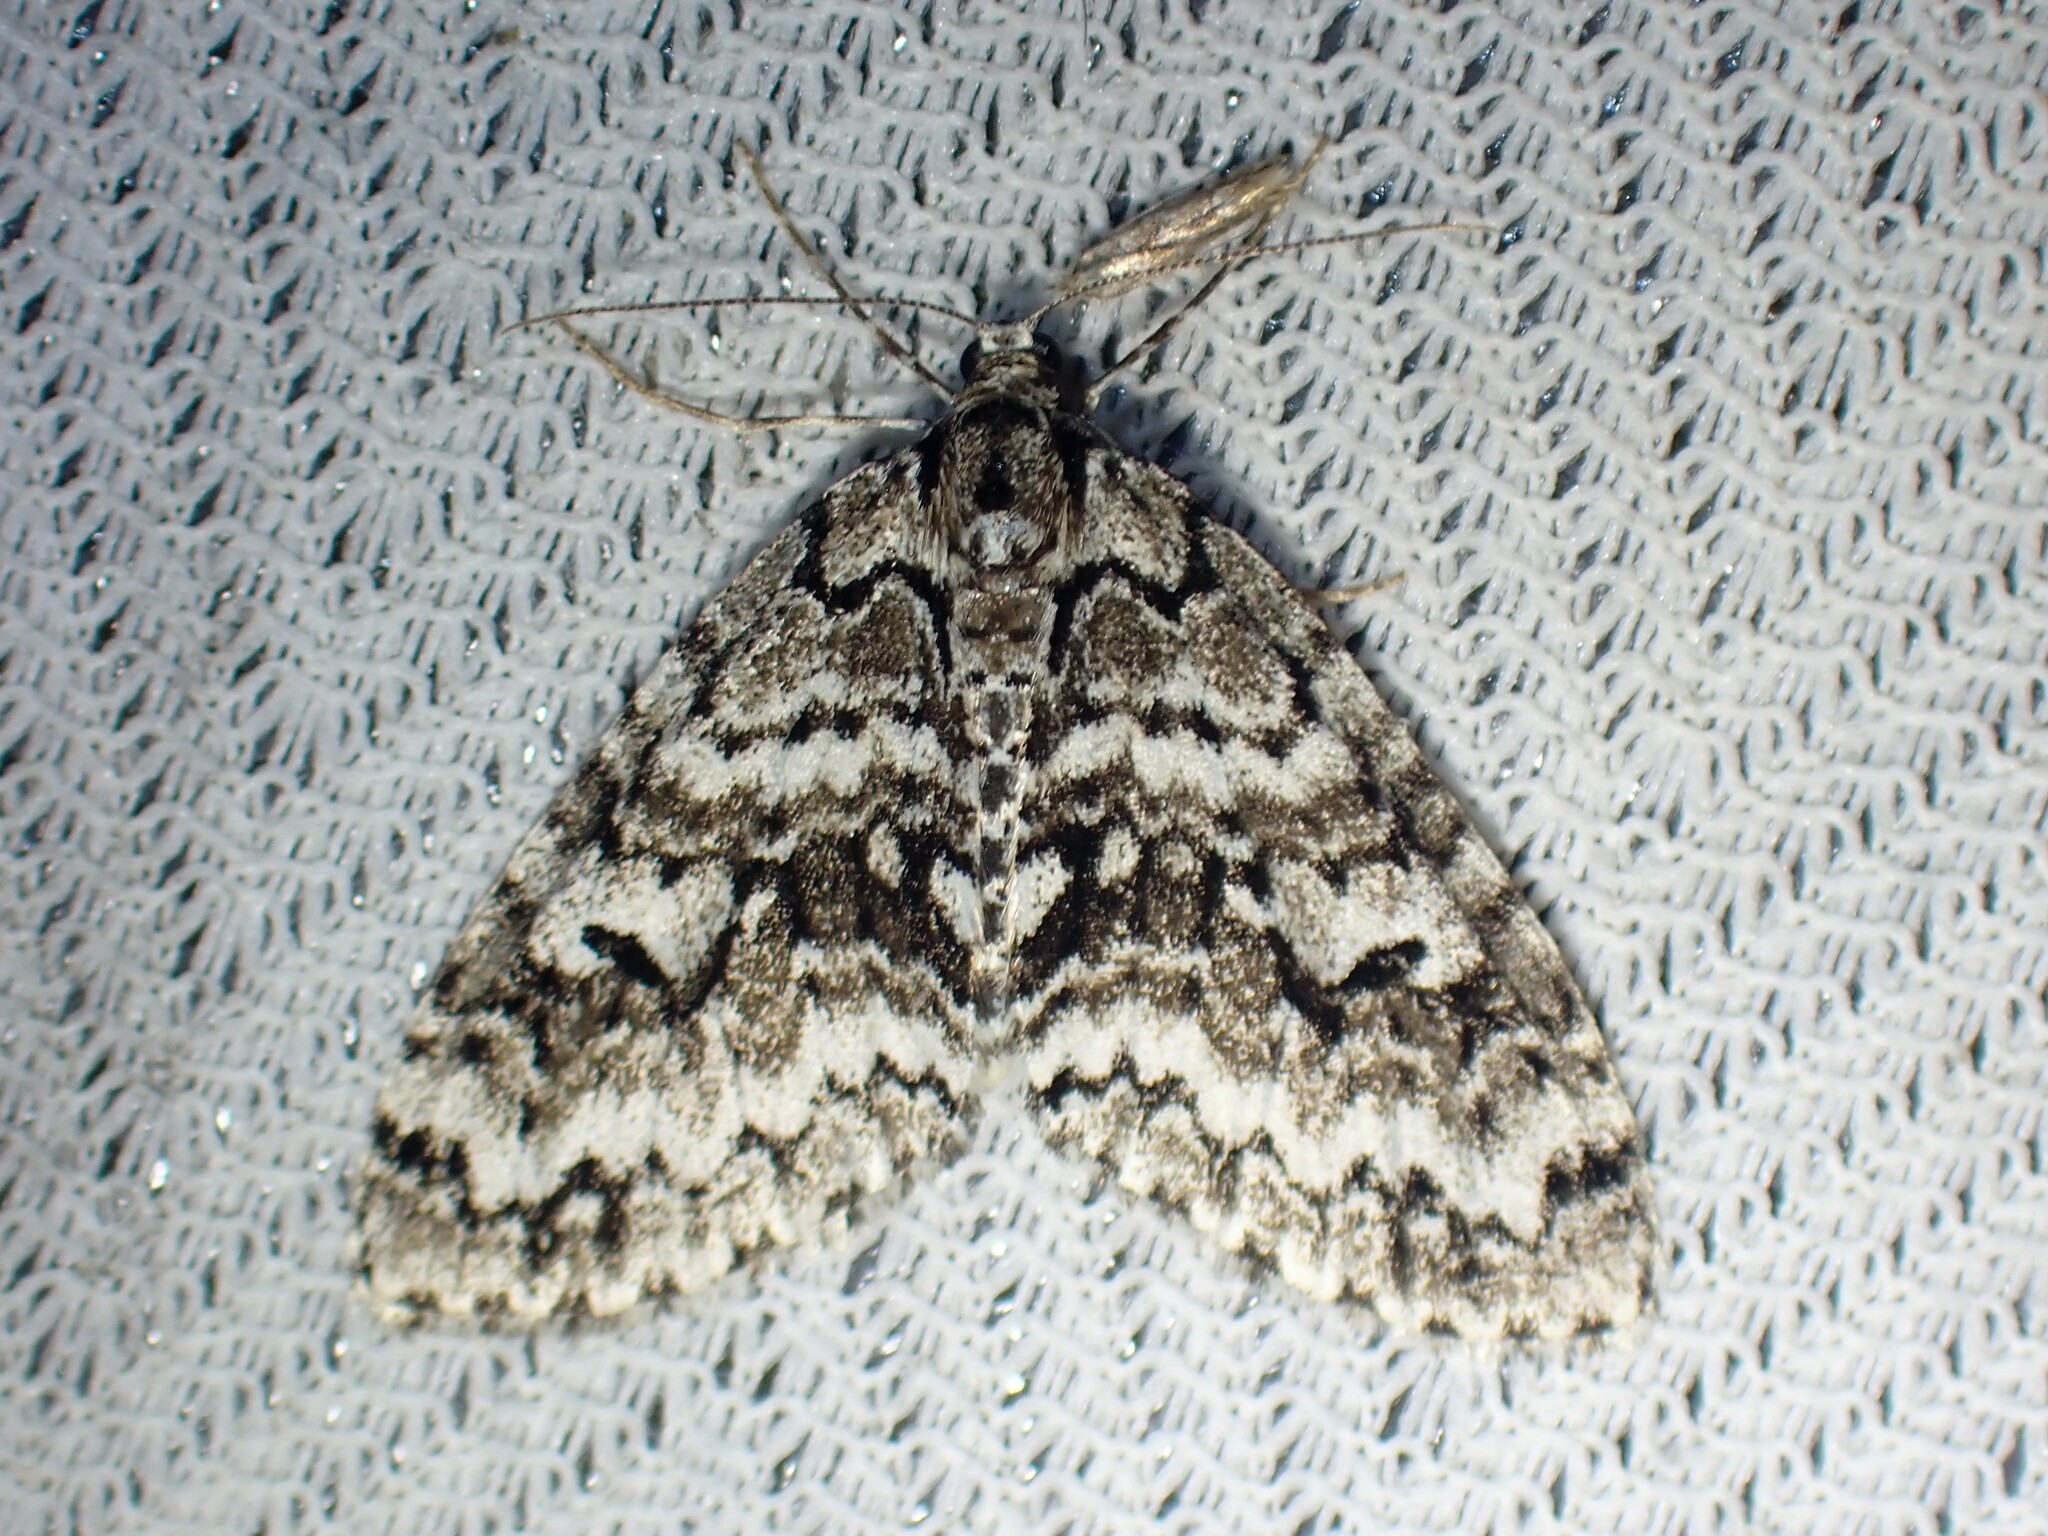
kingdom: Animalia
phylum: Arthropoda
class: Insecta
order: Lepidoptera
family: Geometridae
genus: Cladara
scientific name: Cladara atroliturata
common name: Scribbler
